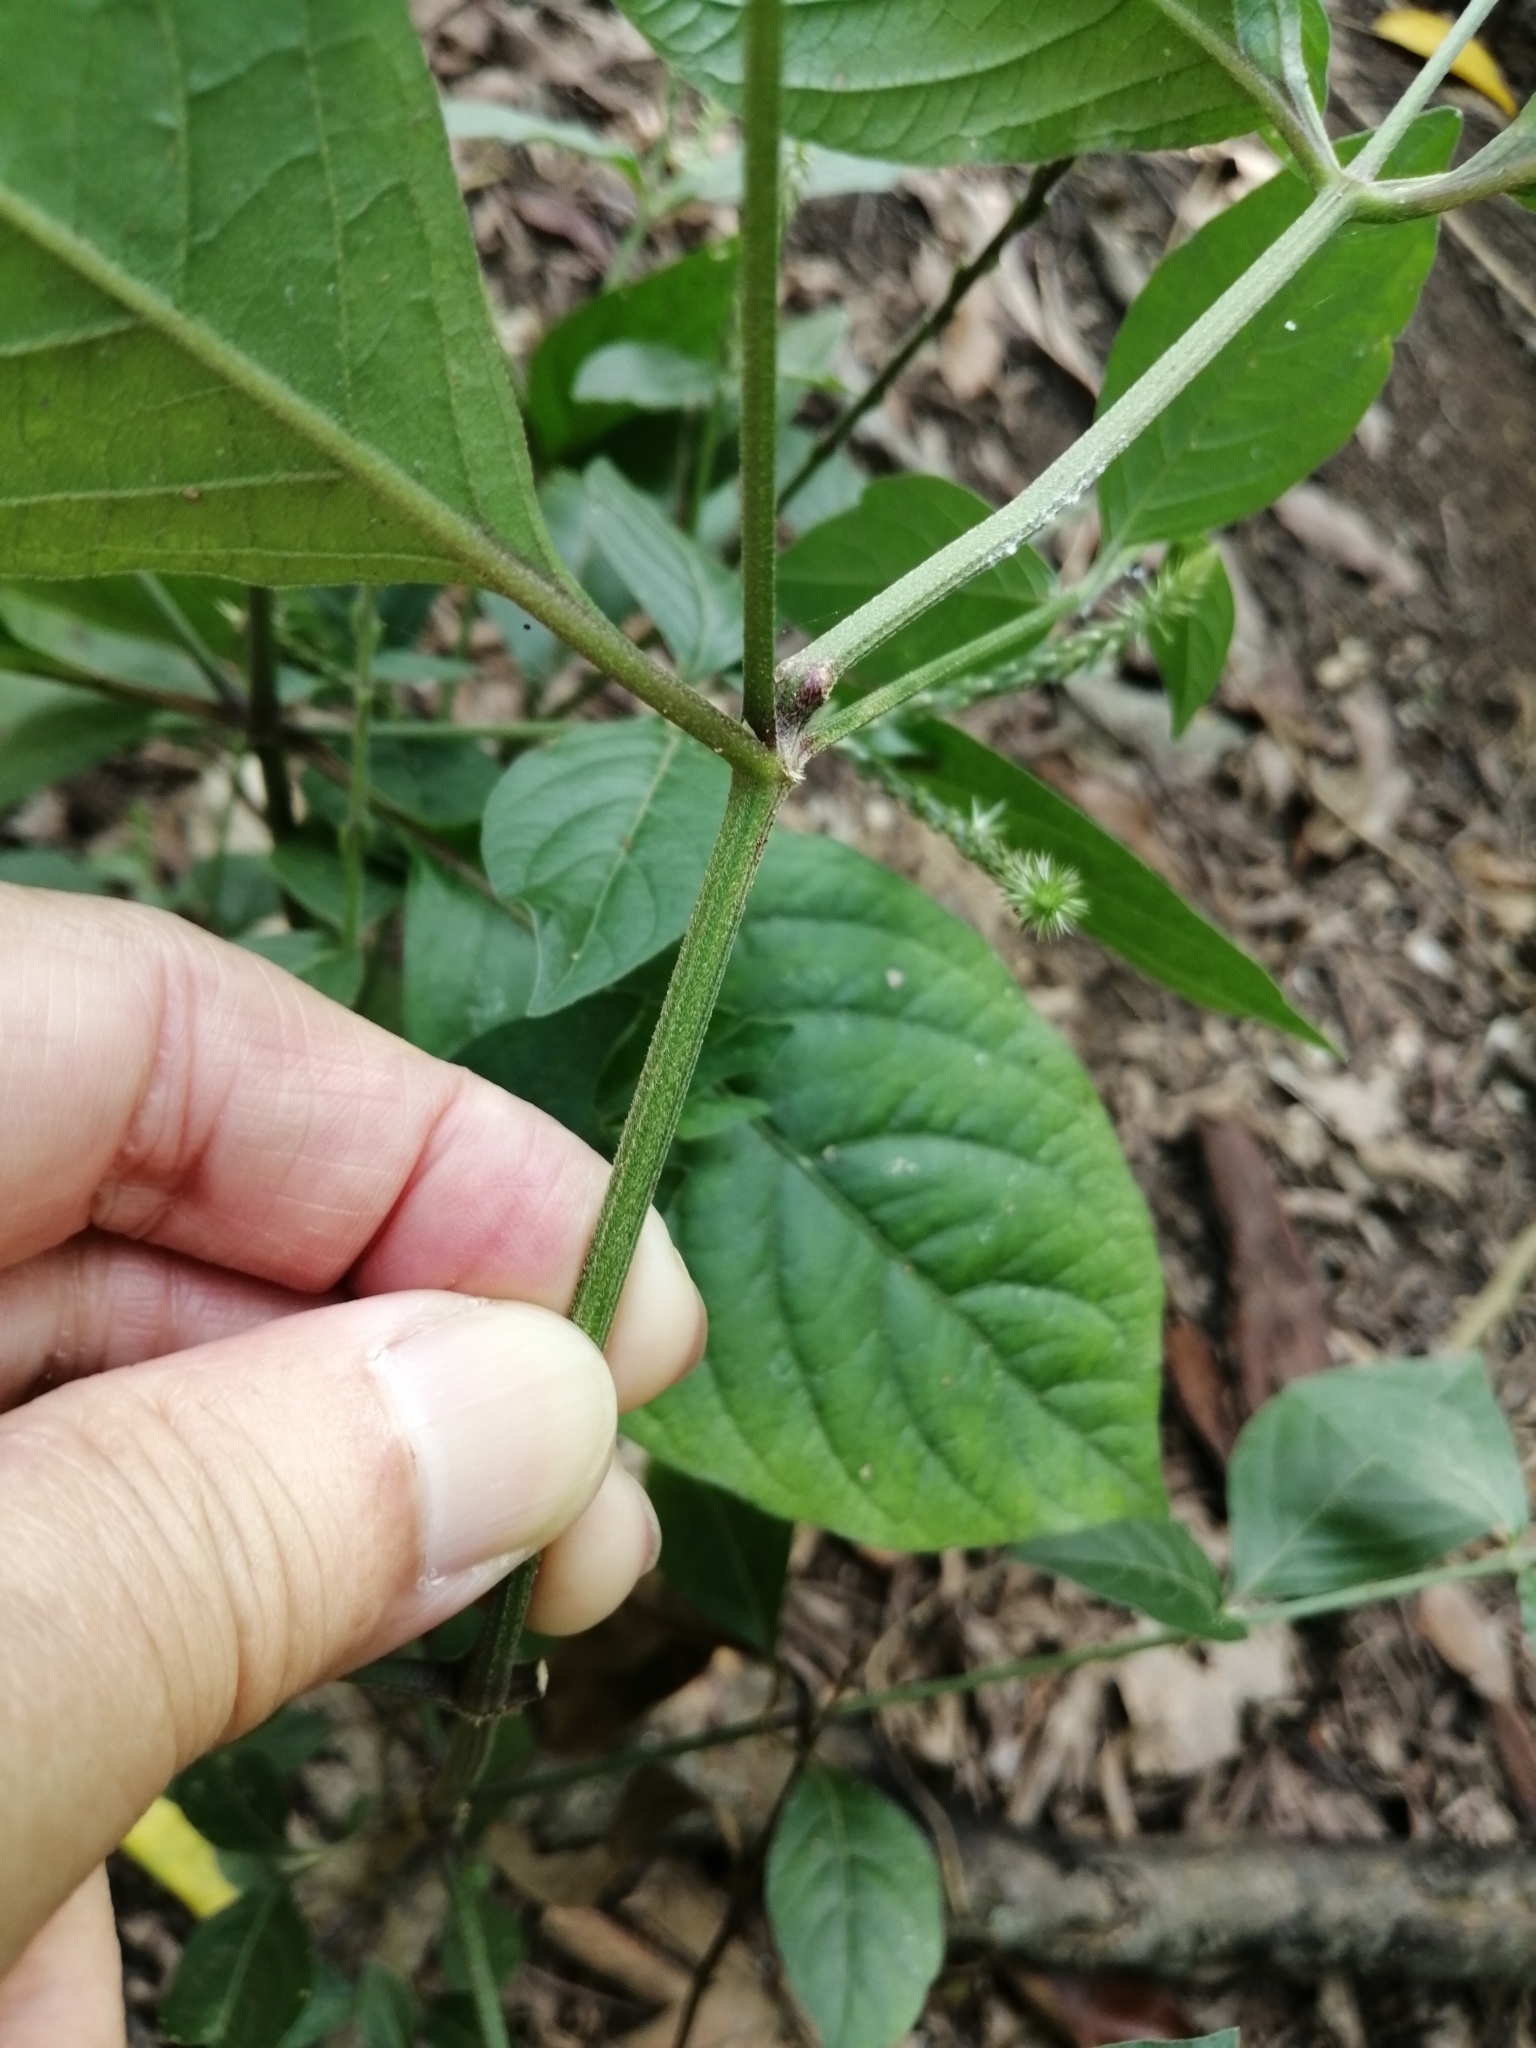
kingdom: Plantae
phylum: Tracheophyta
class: Magnoliopsida
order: Caryophyllales
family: Amaranthaceae
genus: Achyranthes
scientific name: Achyranthes aspera
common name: Devil's horsewhip
